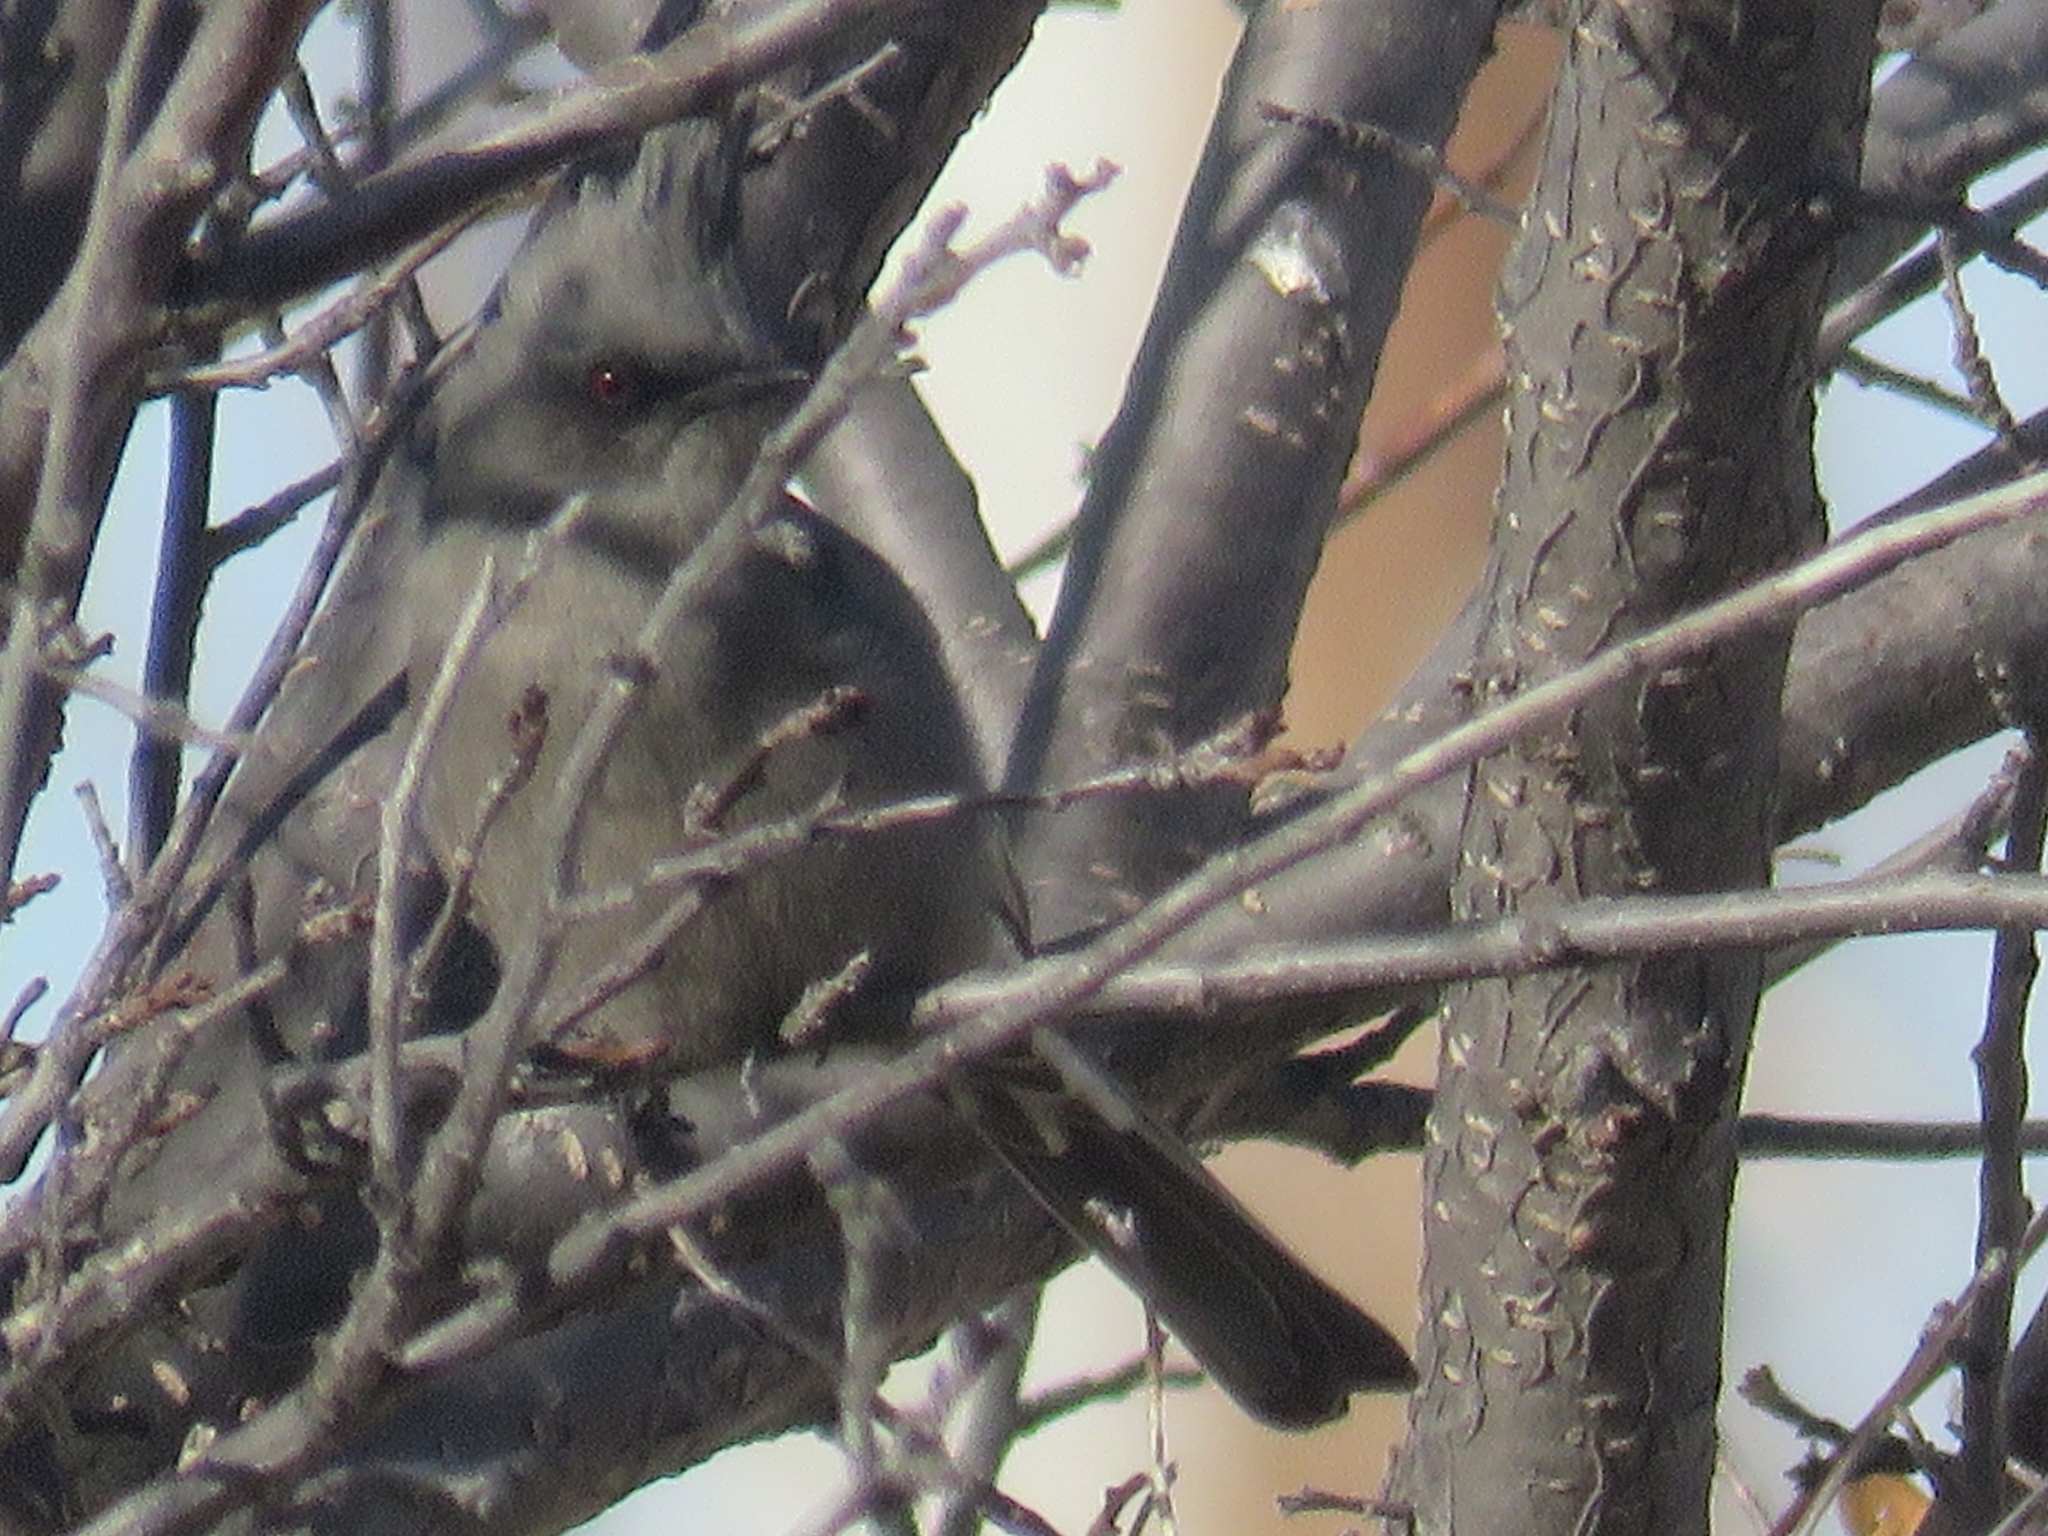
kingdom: Animalia
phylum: Chordata
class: Aves
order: Passeriformes
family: Ptilogonatidae
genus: Phainopepla
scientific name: Phainopepla nitens
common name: Phainopepla
